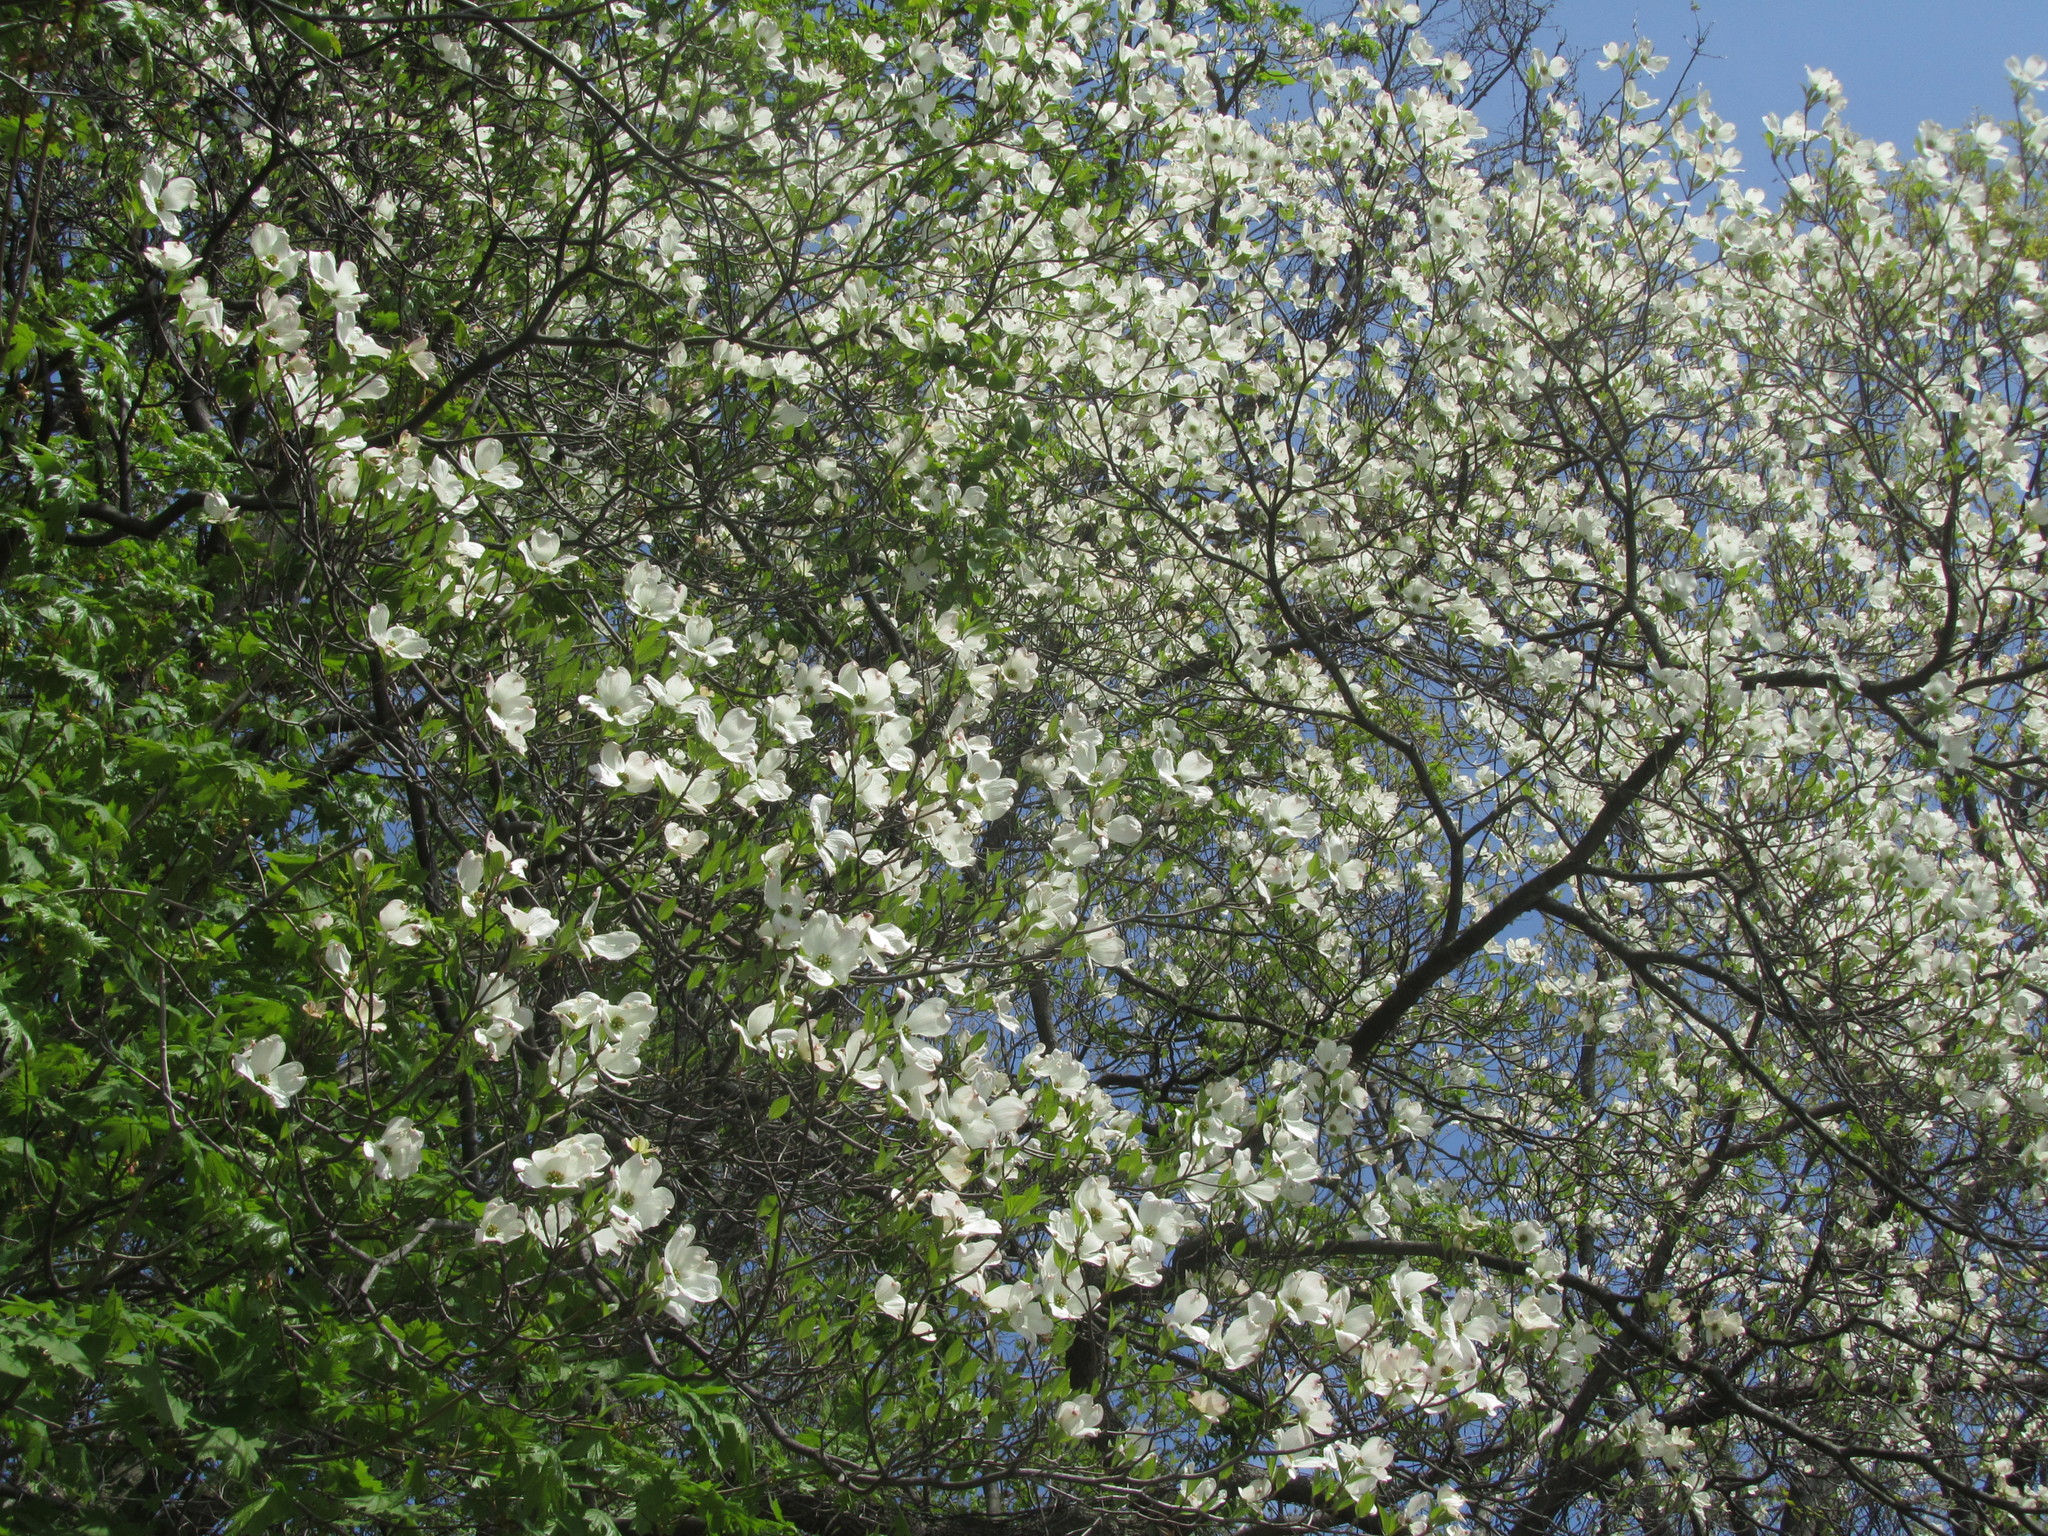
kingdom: Plantae
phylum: Tracheophyta
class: Magnoliopsida
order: Cornales
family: Cornaceae
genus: Cornus
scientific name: Cornus florida
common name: Flowering dogwood
